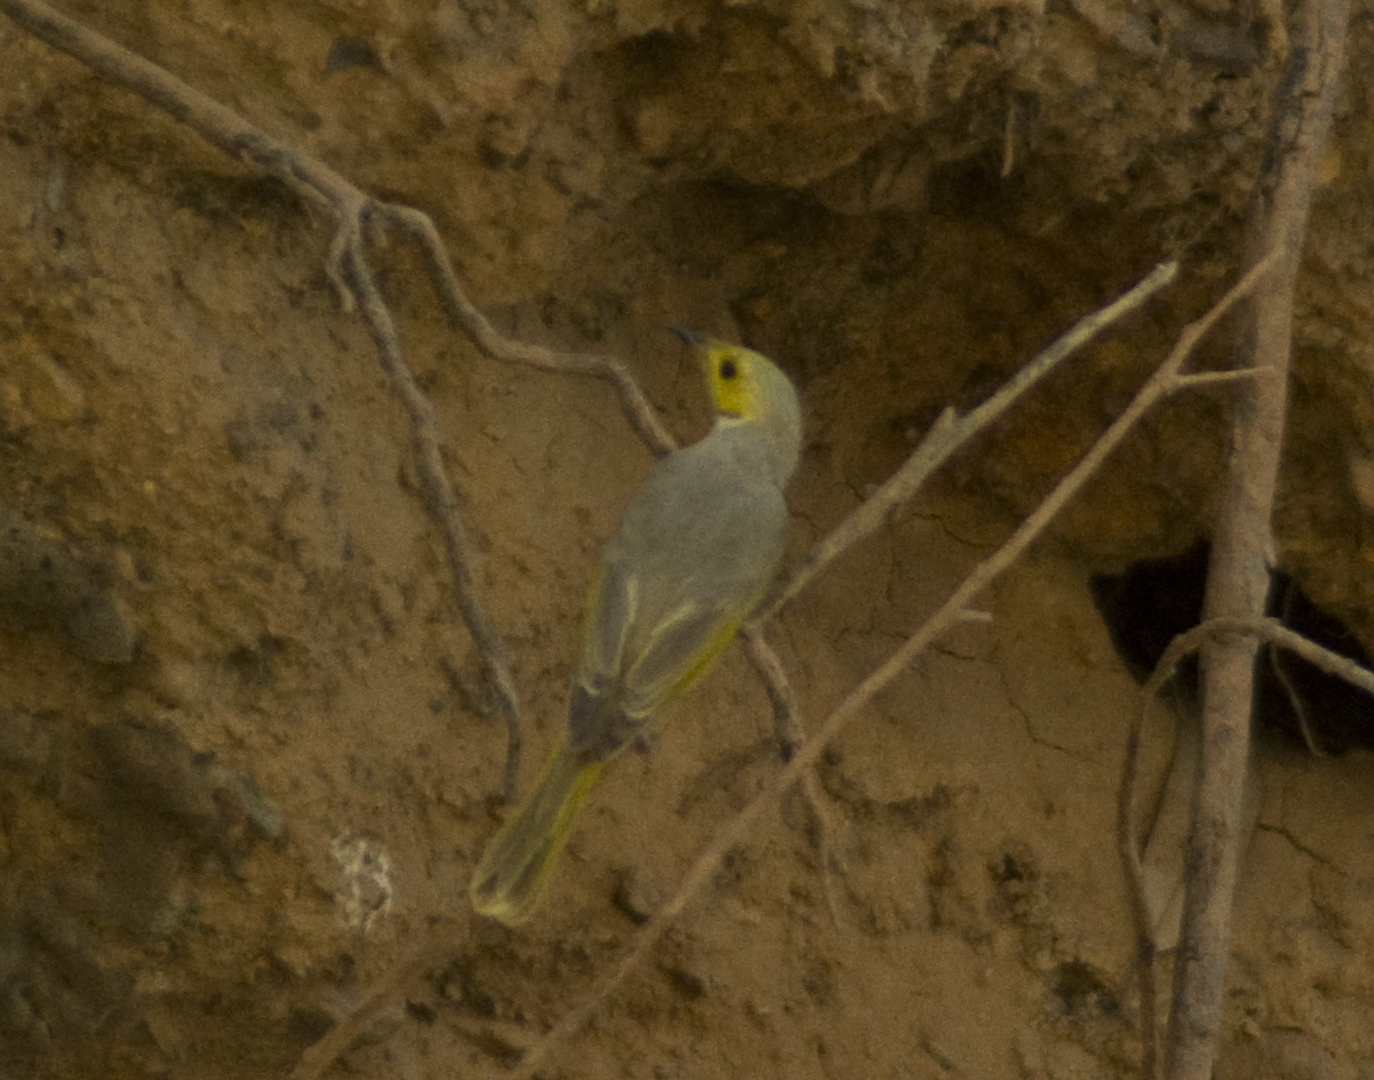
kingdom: Animalia
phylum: Chordata
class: Aves
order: Passeriformes
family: Meliphagidae
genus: Ptilotula
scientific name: Ptilotula penicillata
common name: White-plumed honeyeater
